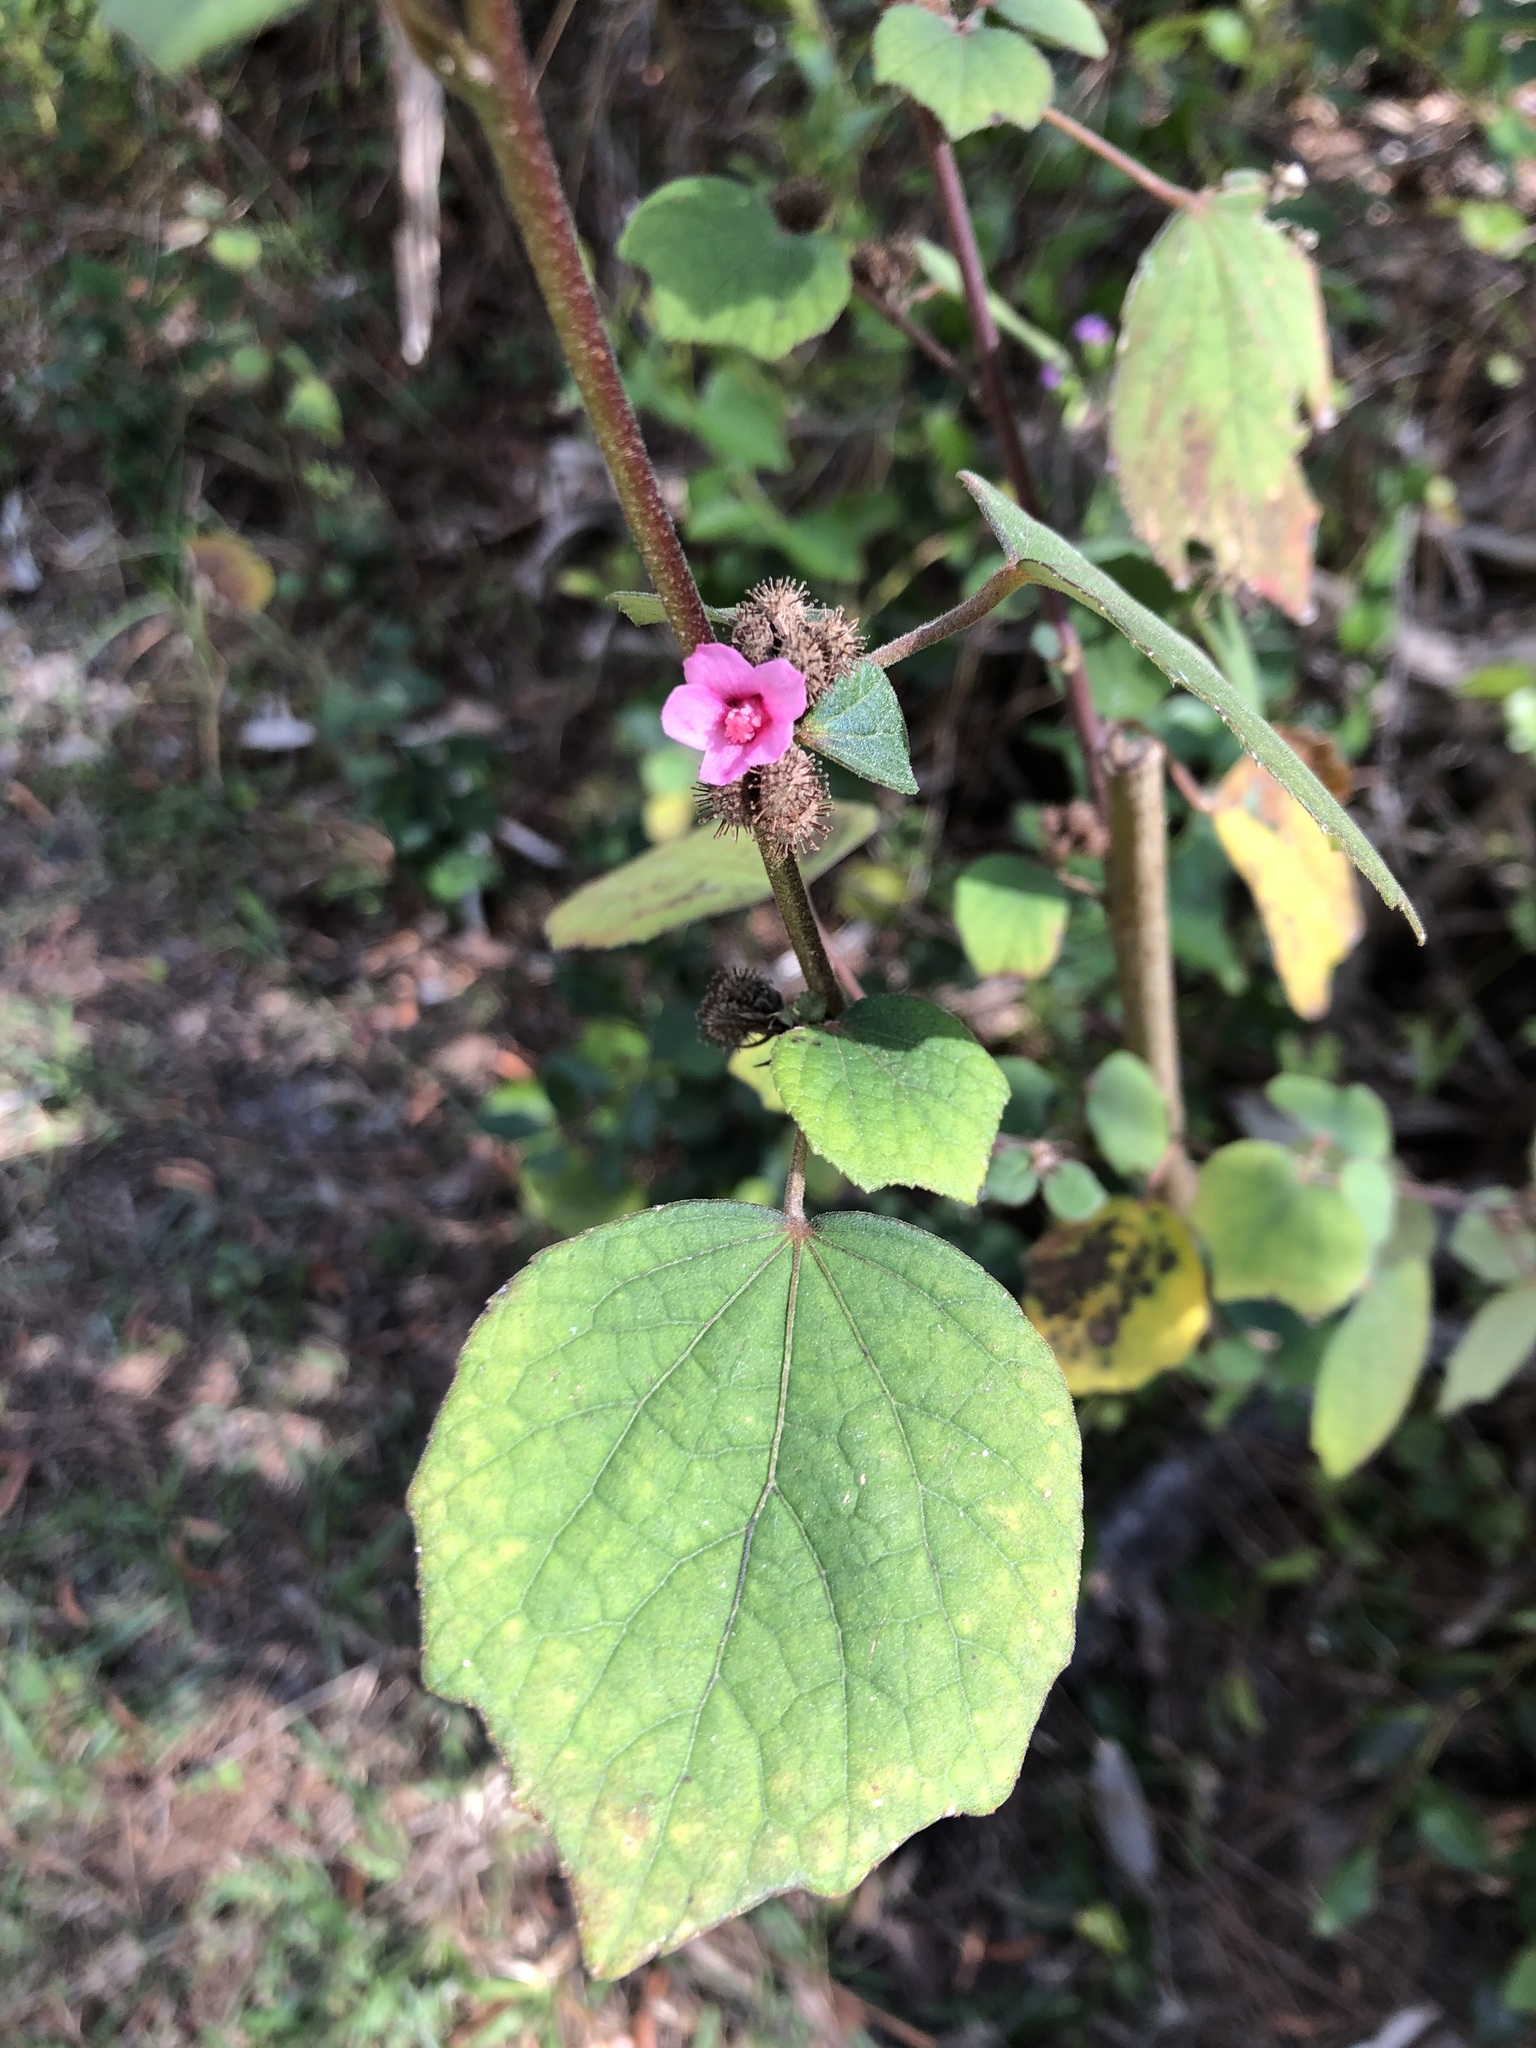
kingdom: Plantae
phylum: Tracheophyta
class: Magnoliopsida
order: Malvales
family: Malvaceae
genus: Urena
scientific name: Urena lobata
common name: Caesarweed
